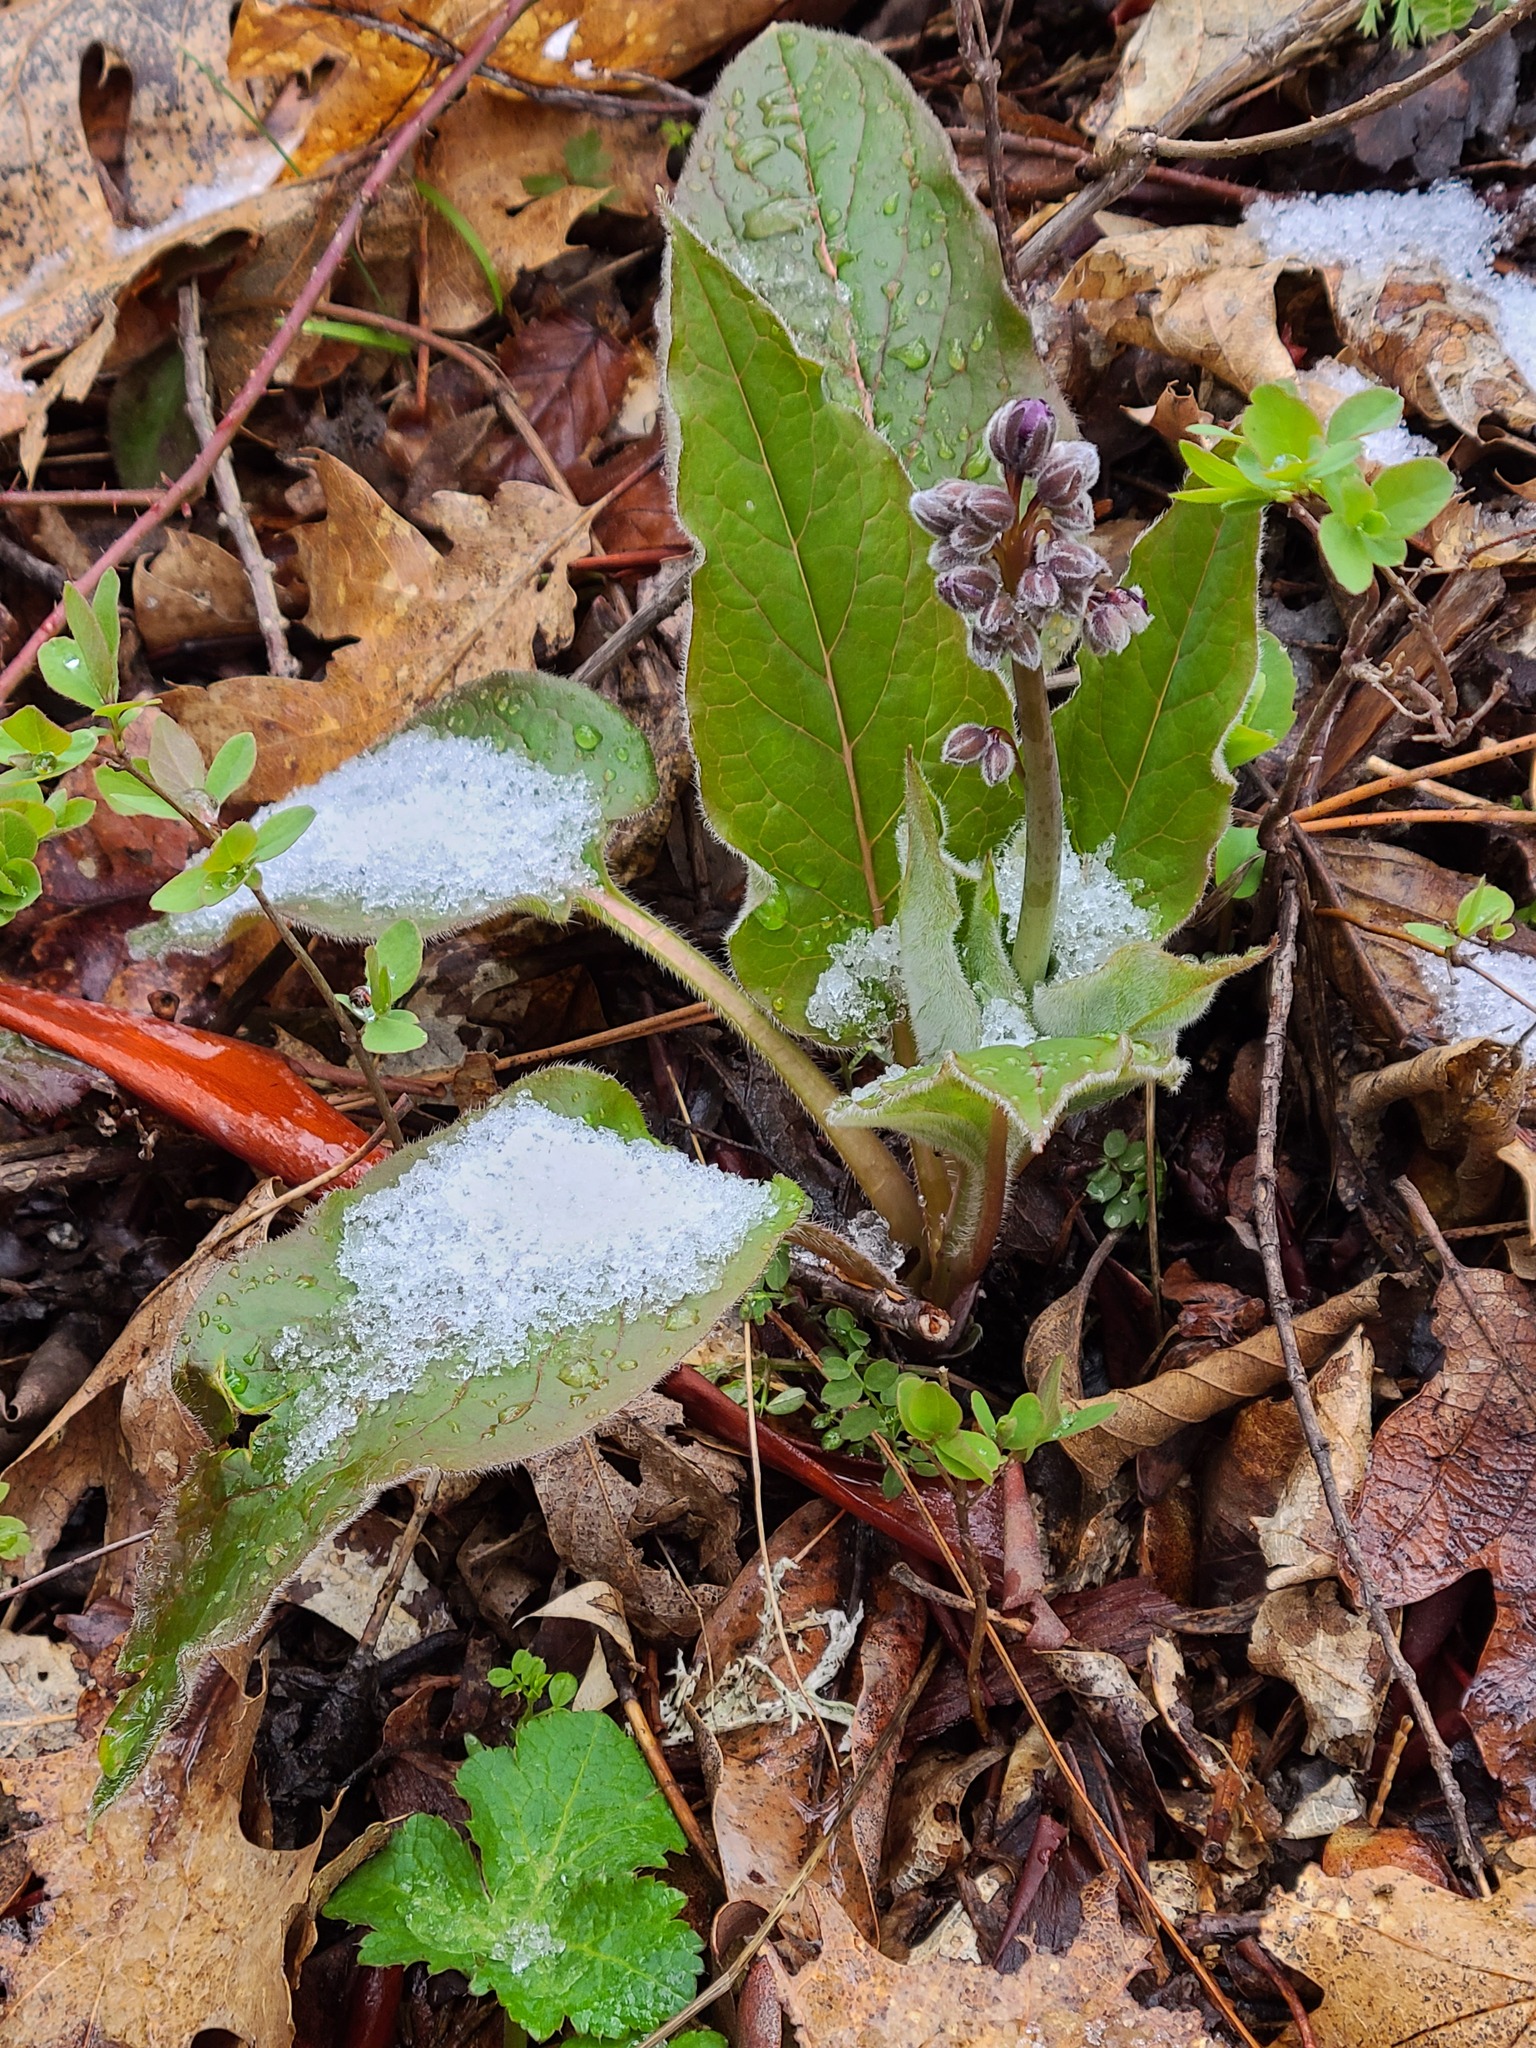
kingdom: Plantae
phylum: Tracheophyta
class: Magnoliopsida
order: Boraginales
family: Boraginaceae
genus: Adelinia
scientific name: Adelinia grande
